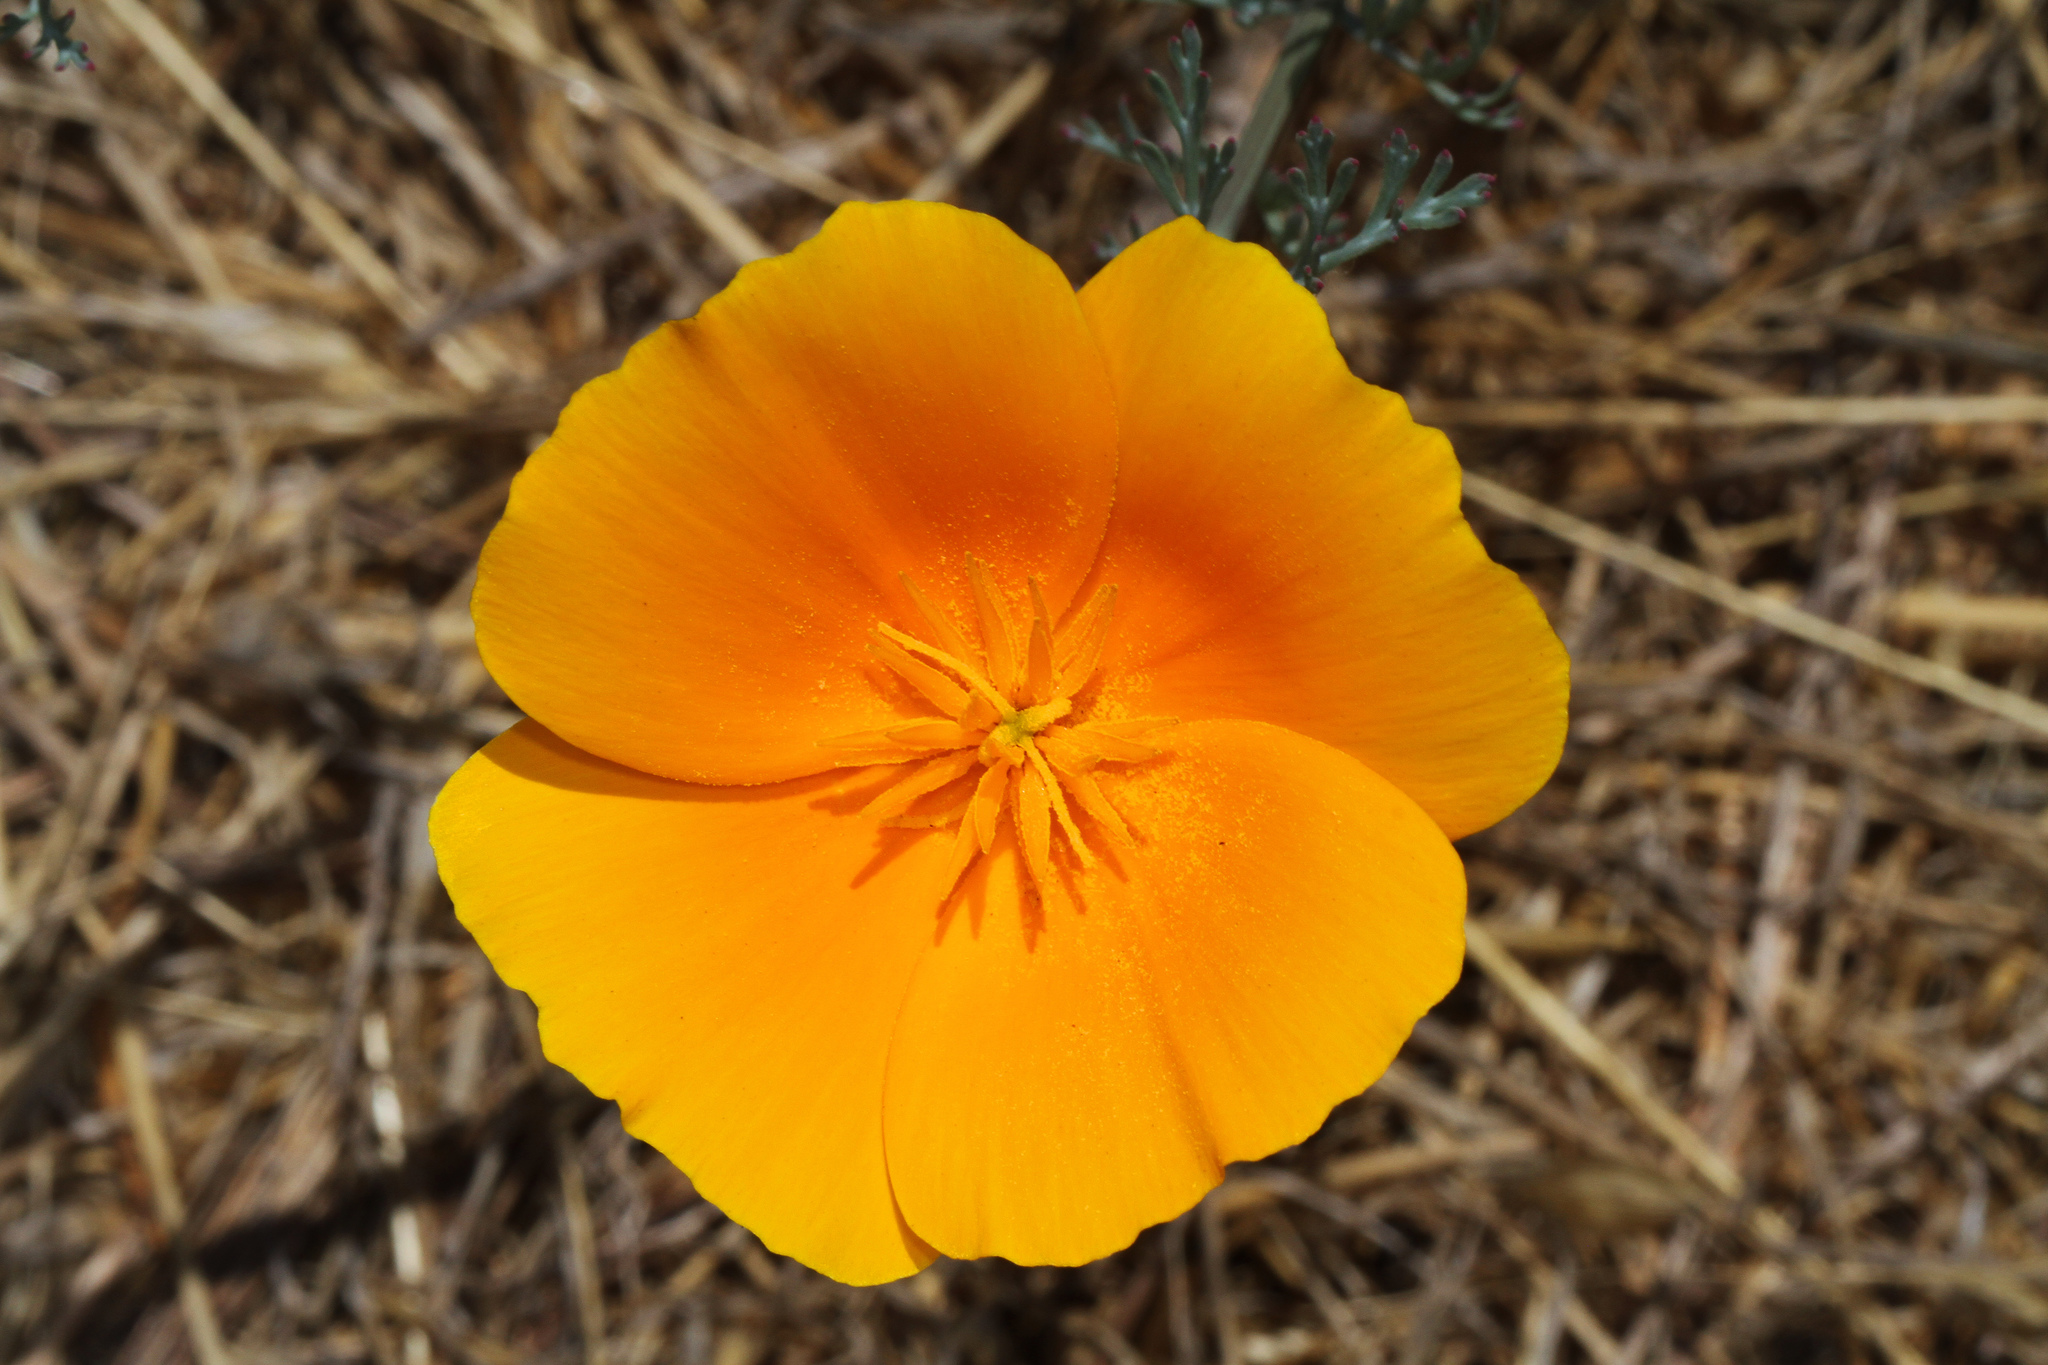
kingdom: Plantae
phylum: Tracheophyta
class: Magnoliopsida
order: Ranunculales
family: Papaveraceae
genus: Eschscholzia
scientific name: Eschscholzia californica
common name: California poppy
